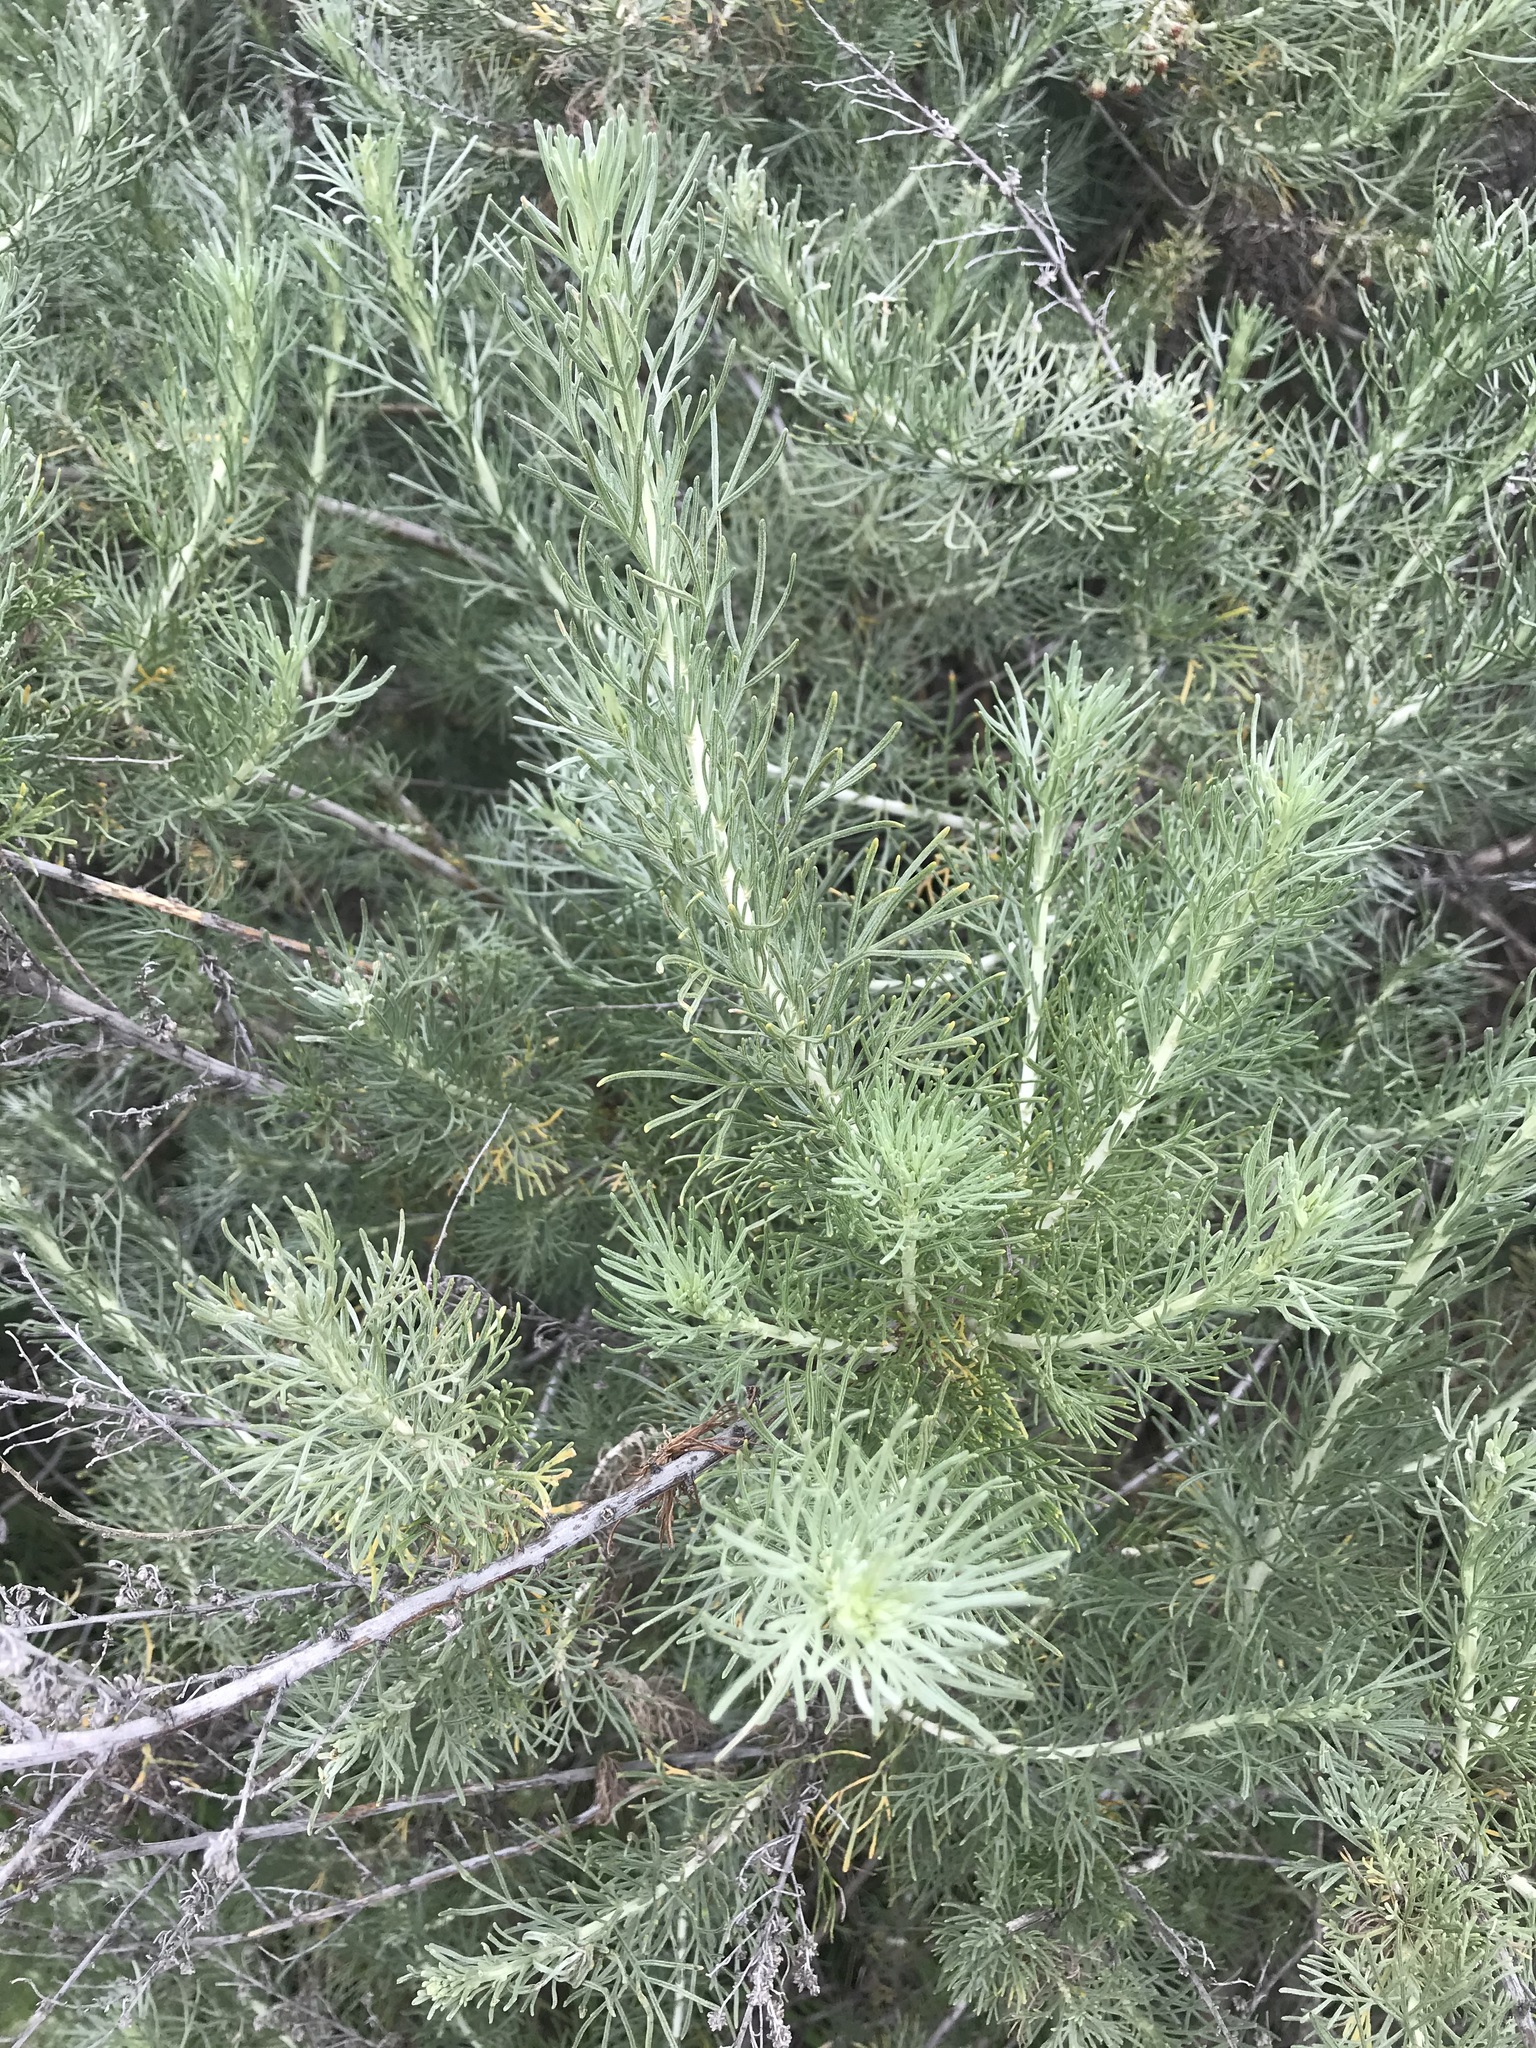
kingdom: Plantae
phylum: Tracheophyta
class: Magnoliopsida
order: Asterales
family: Asteraceae
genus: Artemisia
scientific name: Artemisia californica
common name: California sagebrush
